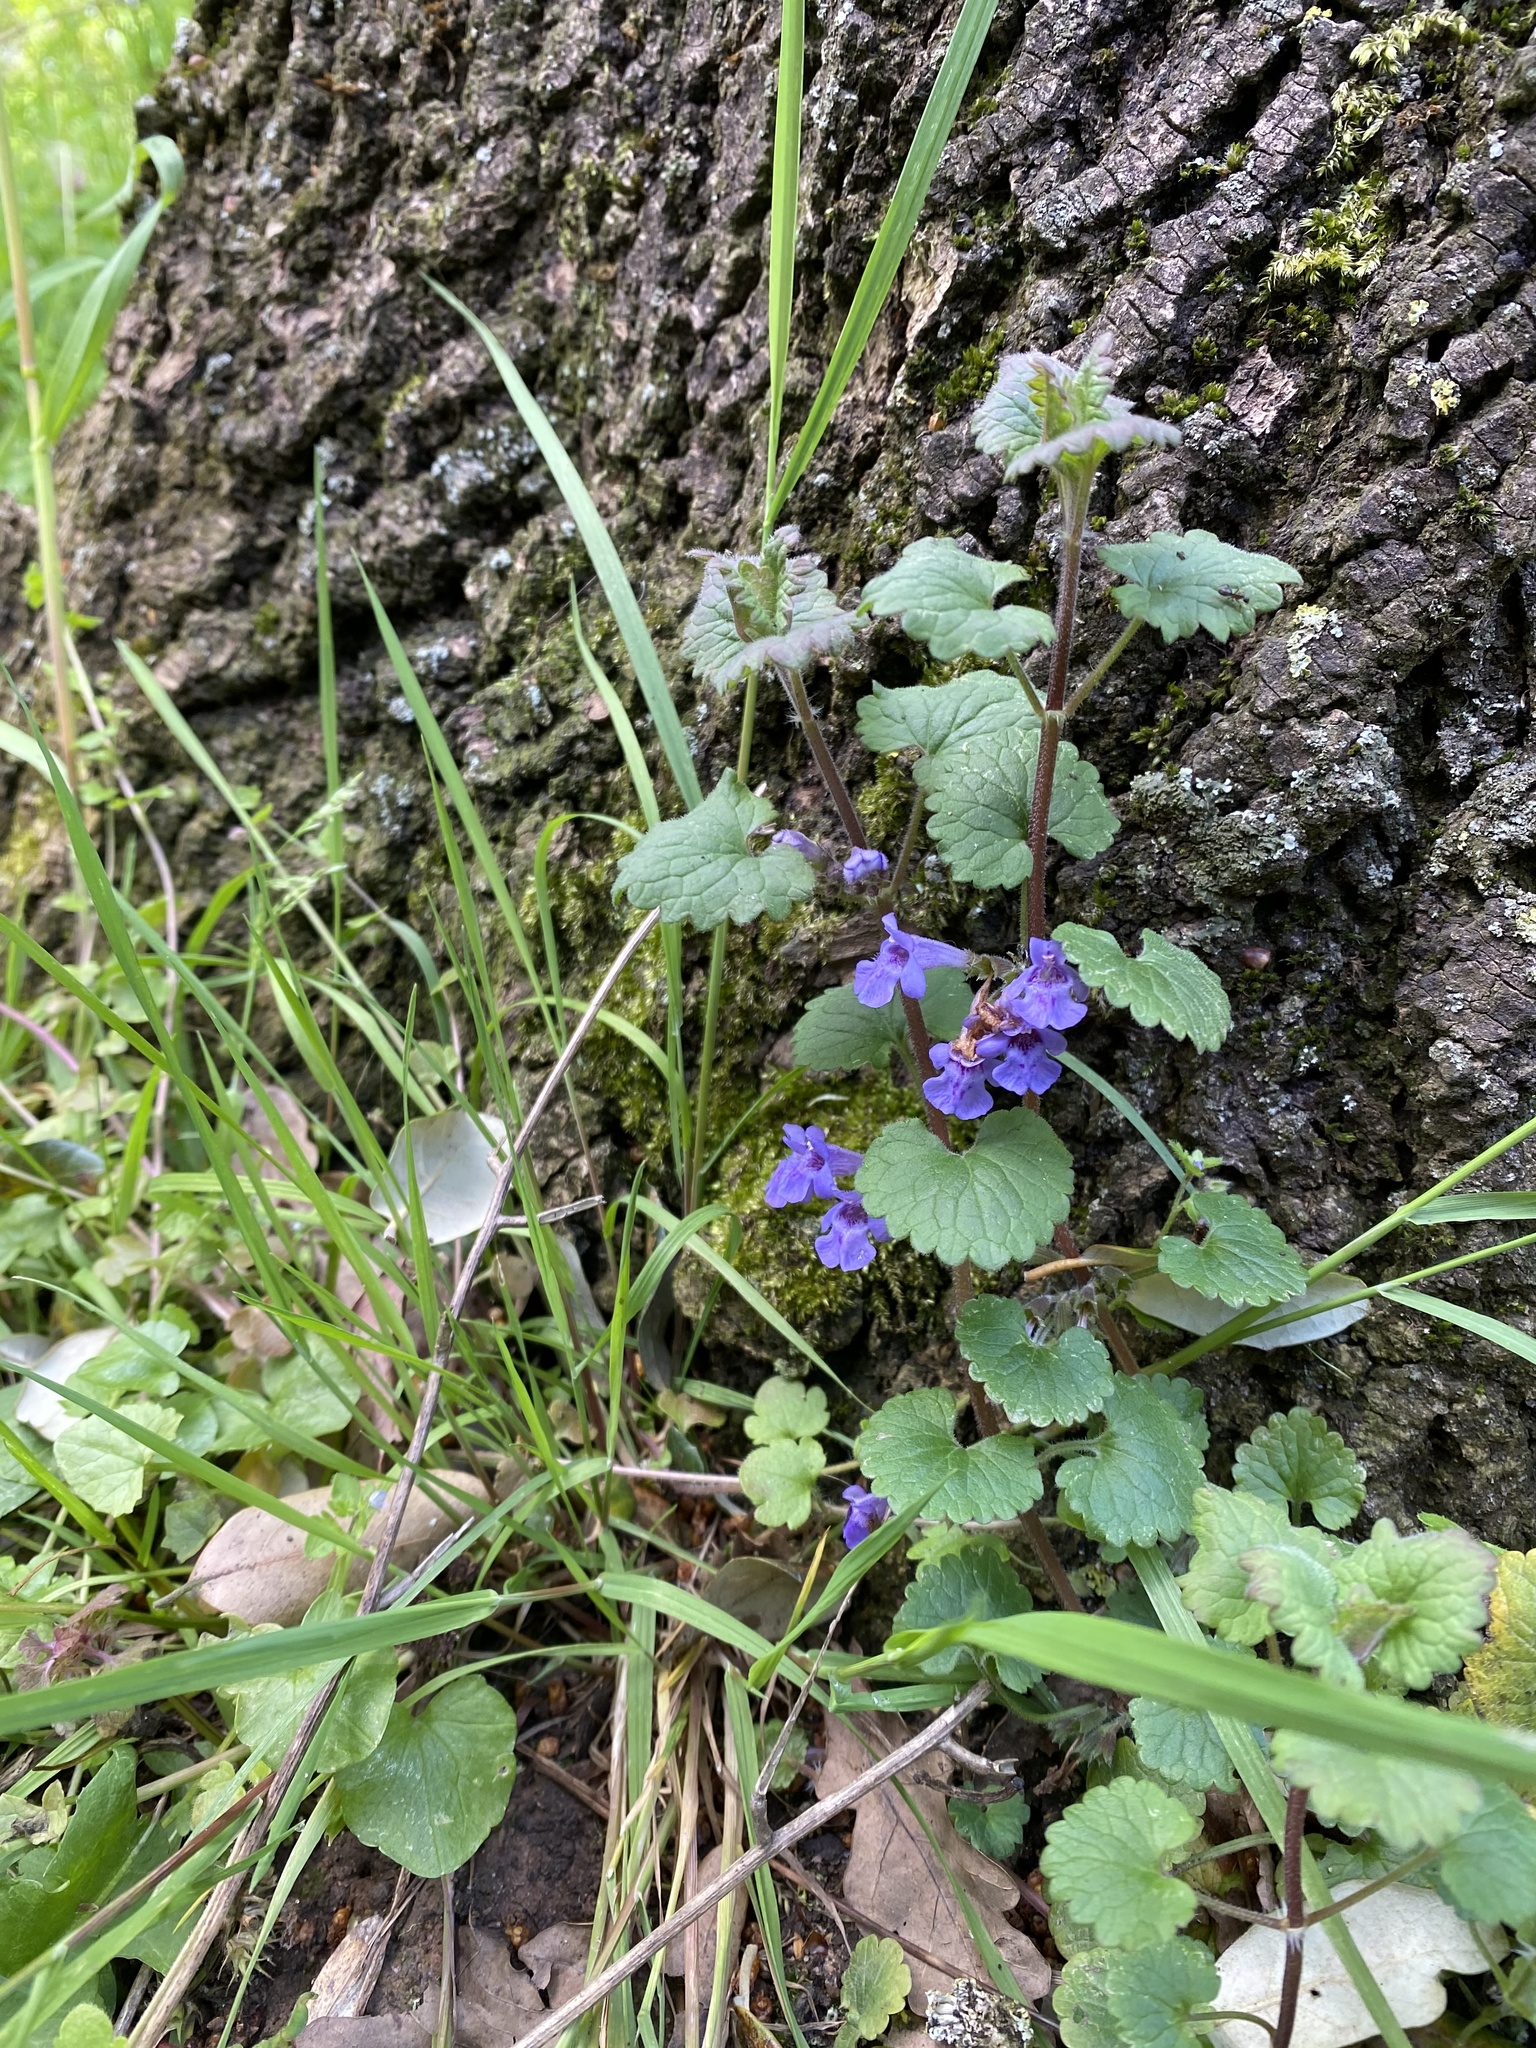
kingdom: Plantae
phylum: Tracheophyta
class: Magnoliopsida
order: Lamiales
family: Lamiaceae
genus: Glechoma
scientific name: Glechoma hederacea
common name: Ground ivy
